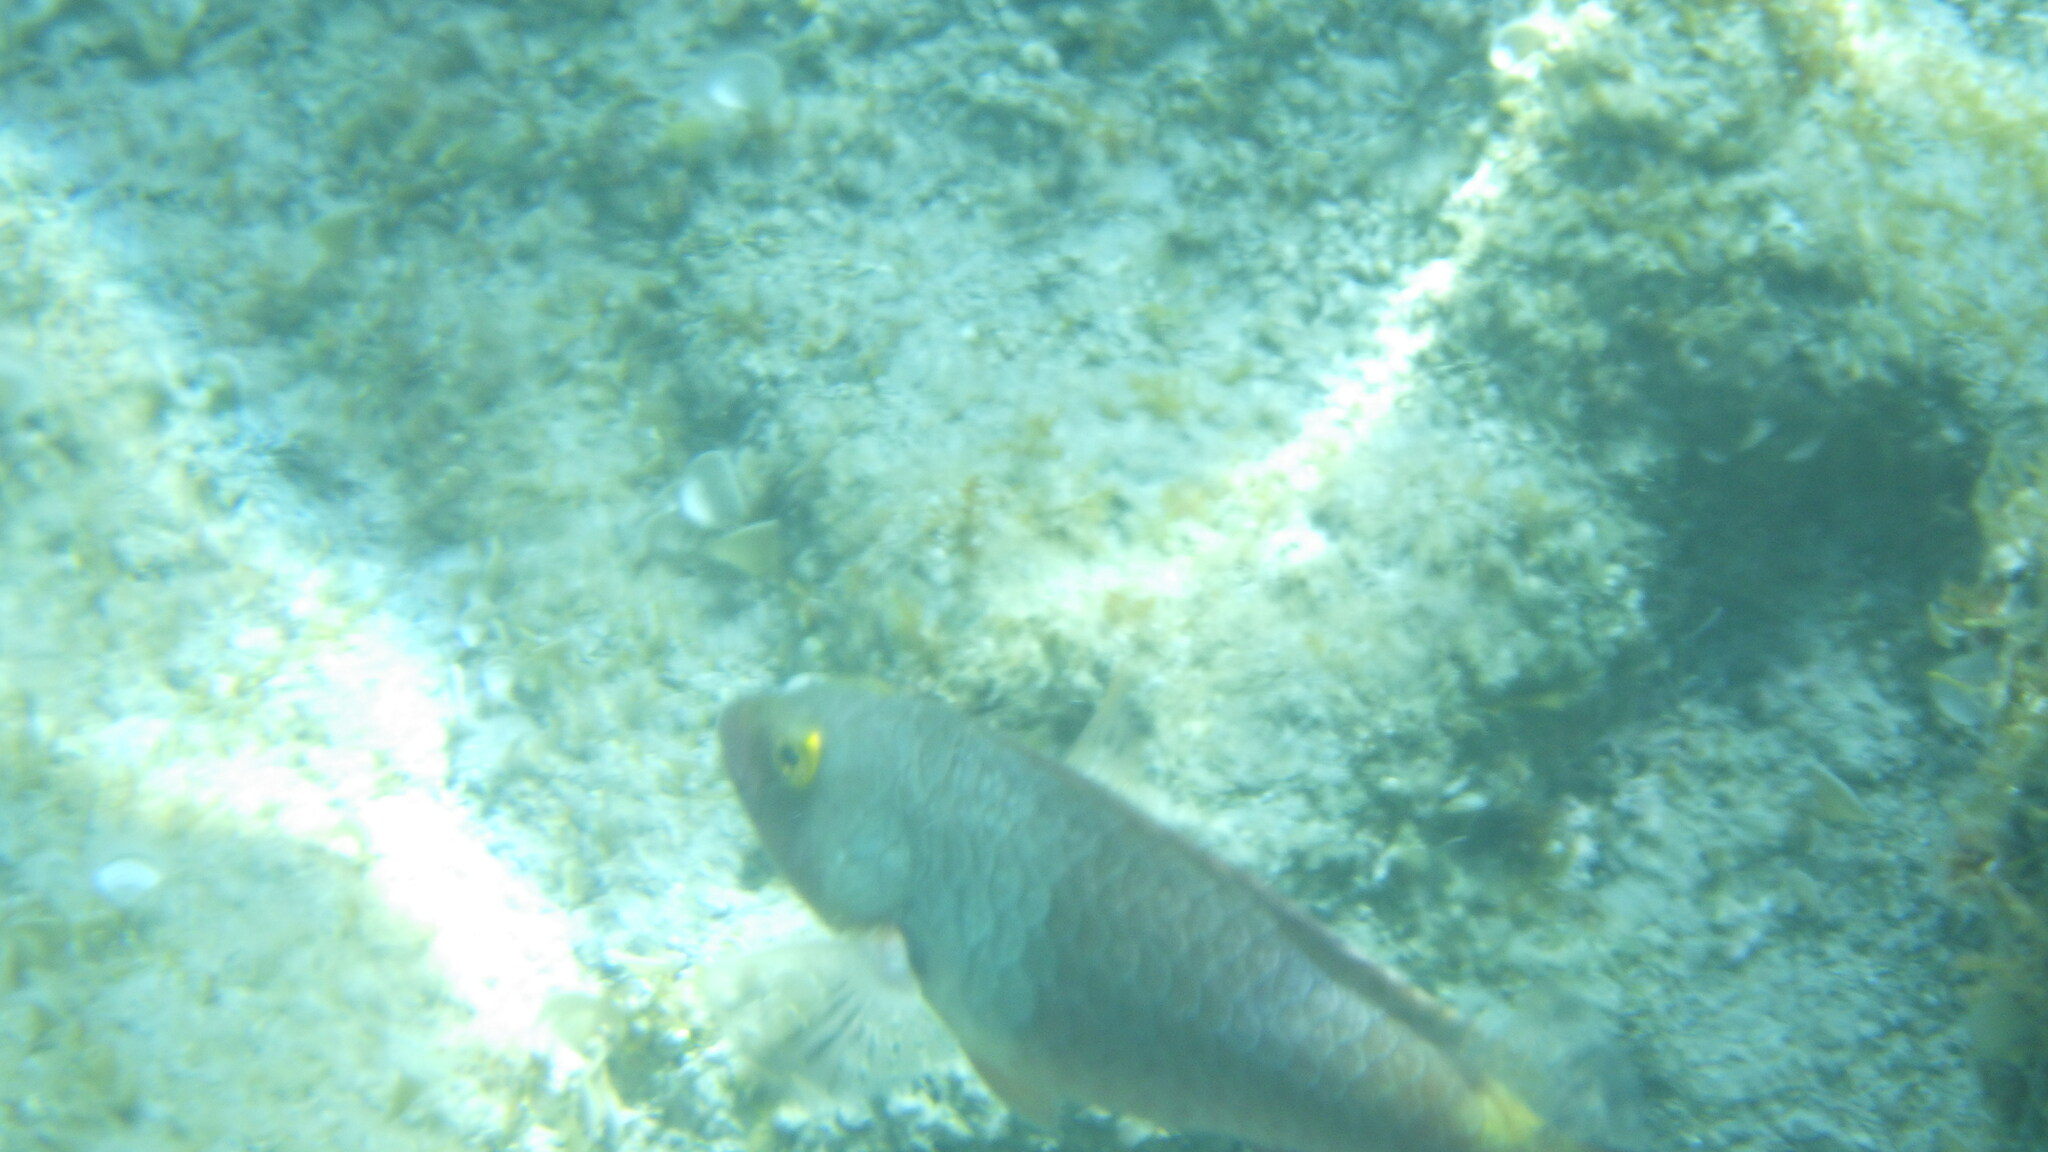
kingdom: Animalia
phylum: Chordata
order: Perciformes
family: Scaridae
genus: Sparisoma
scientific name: Sparisoma cretense
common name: Parrotfish
